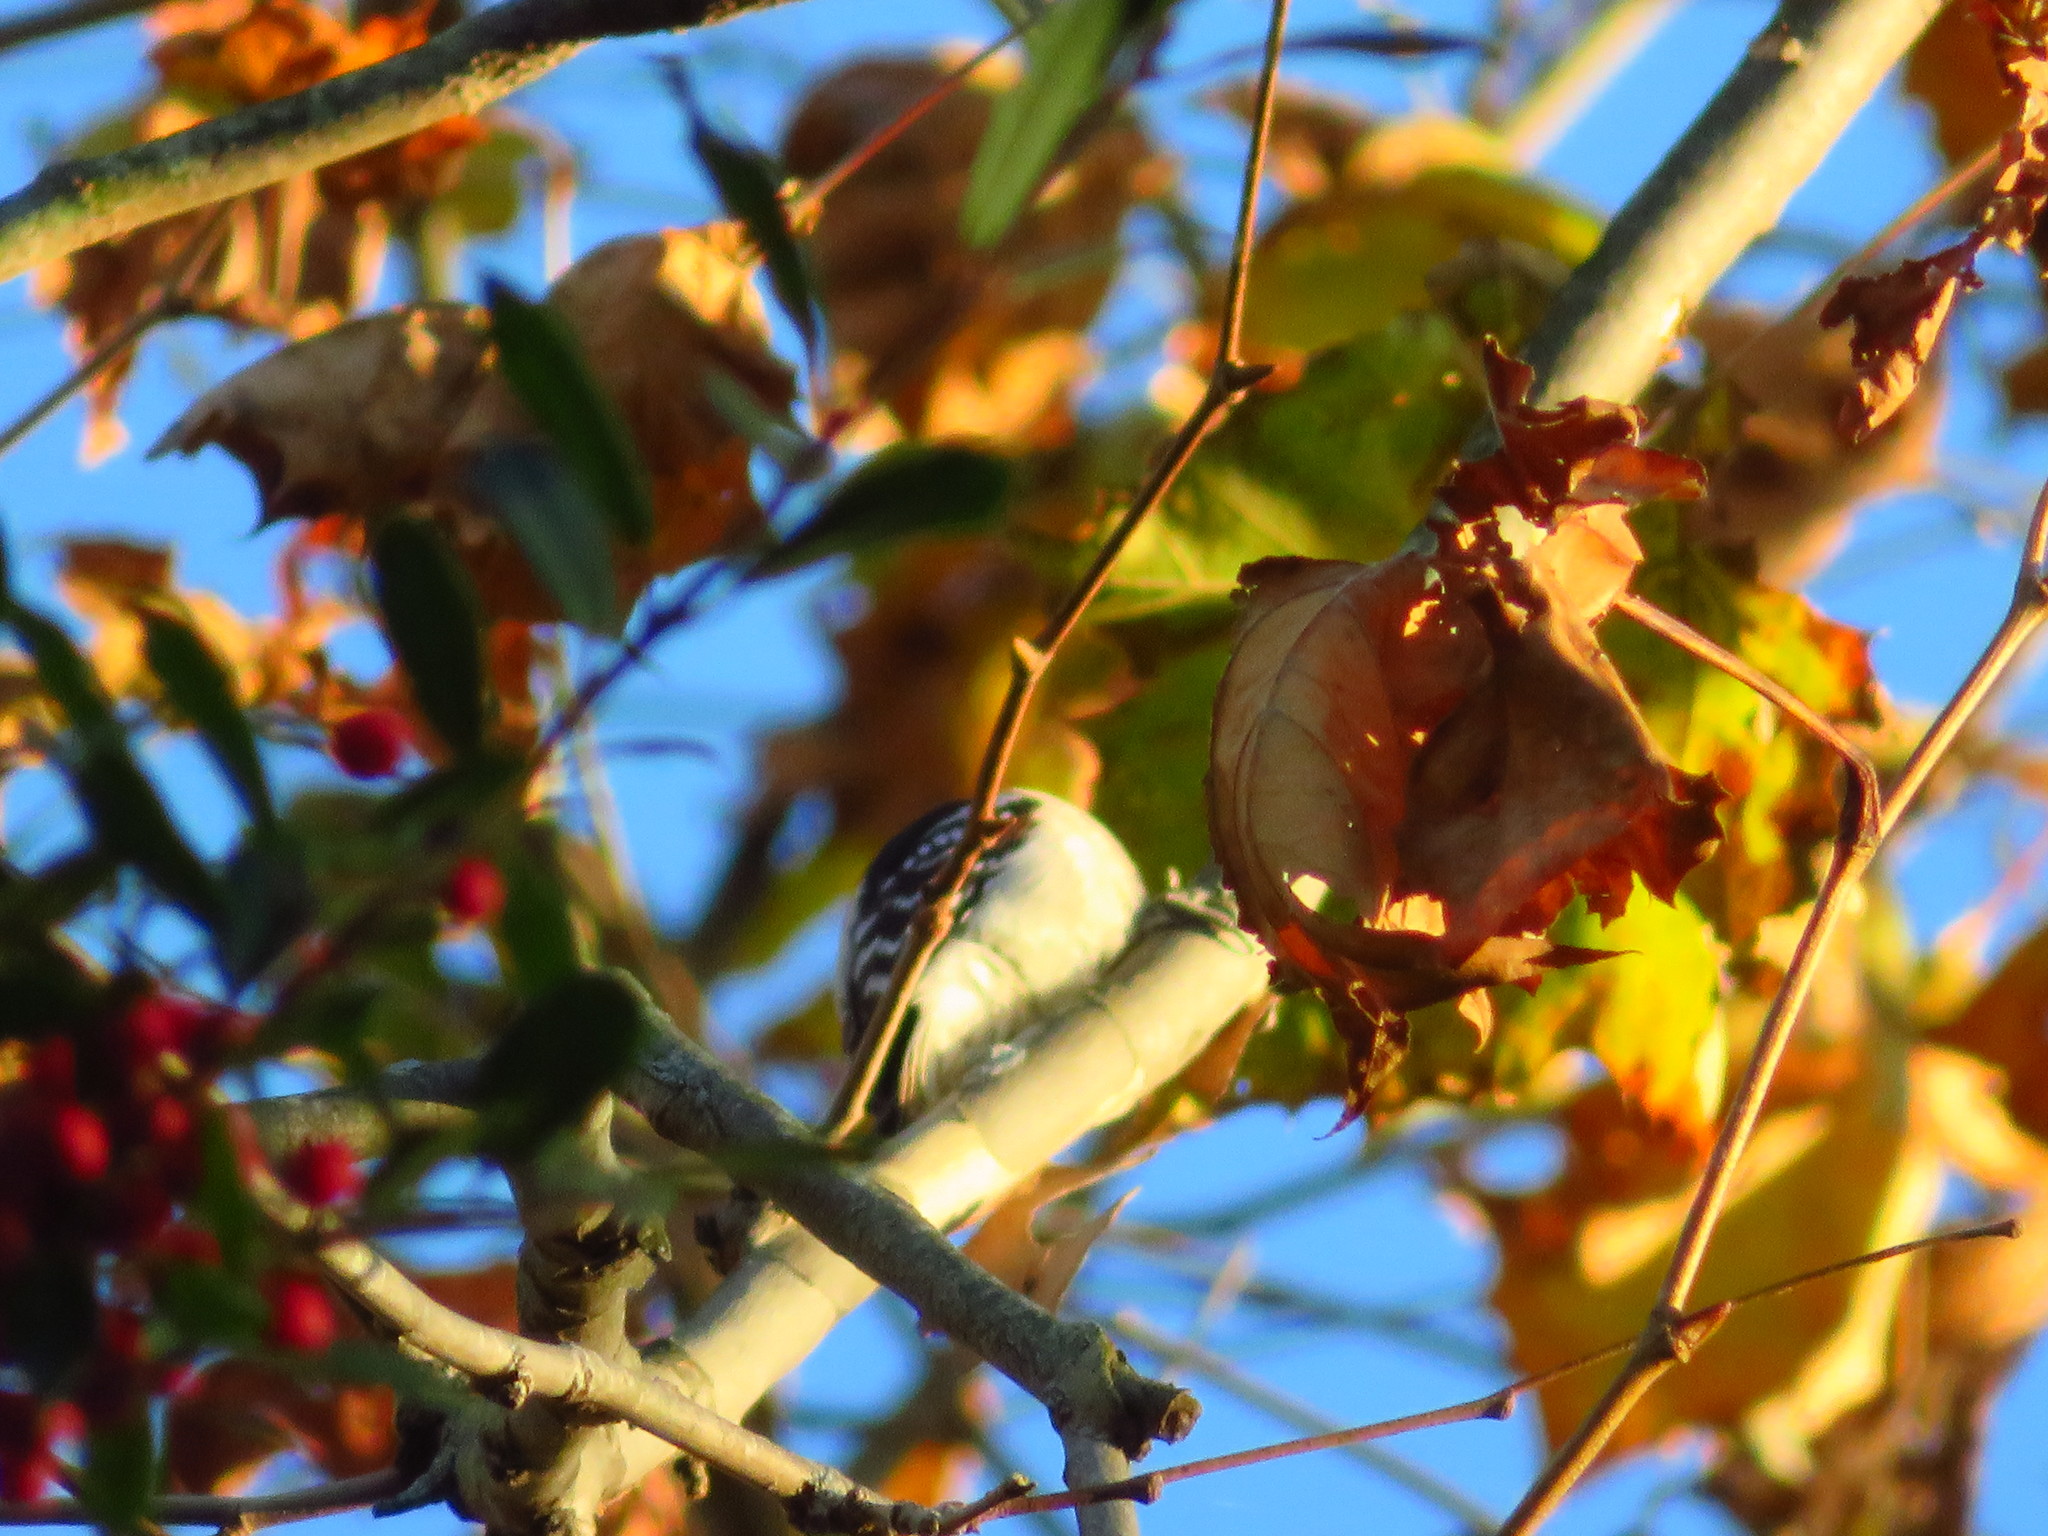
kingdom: Animalia
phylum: Chordata
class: Aves
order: Piciformes
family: Picidae
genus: Dryobates
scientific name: Dryobates pubescens
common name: Downy woodpecker
